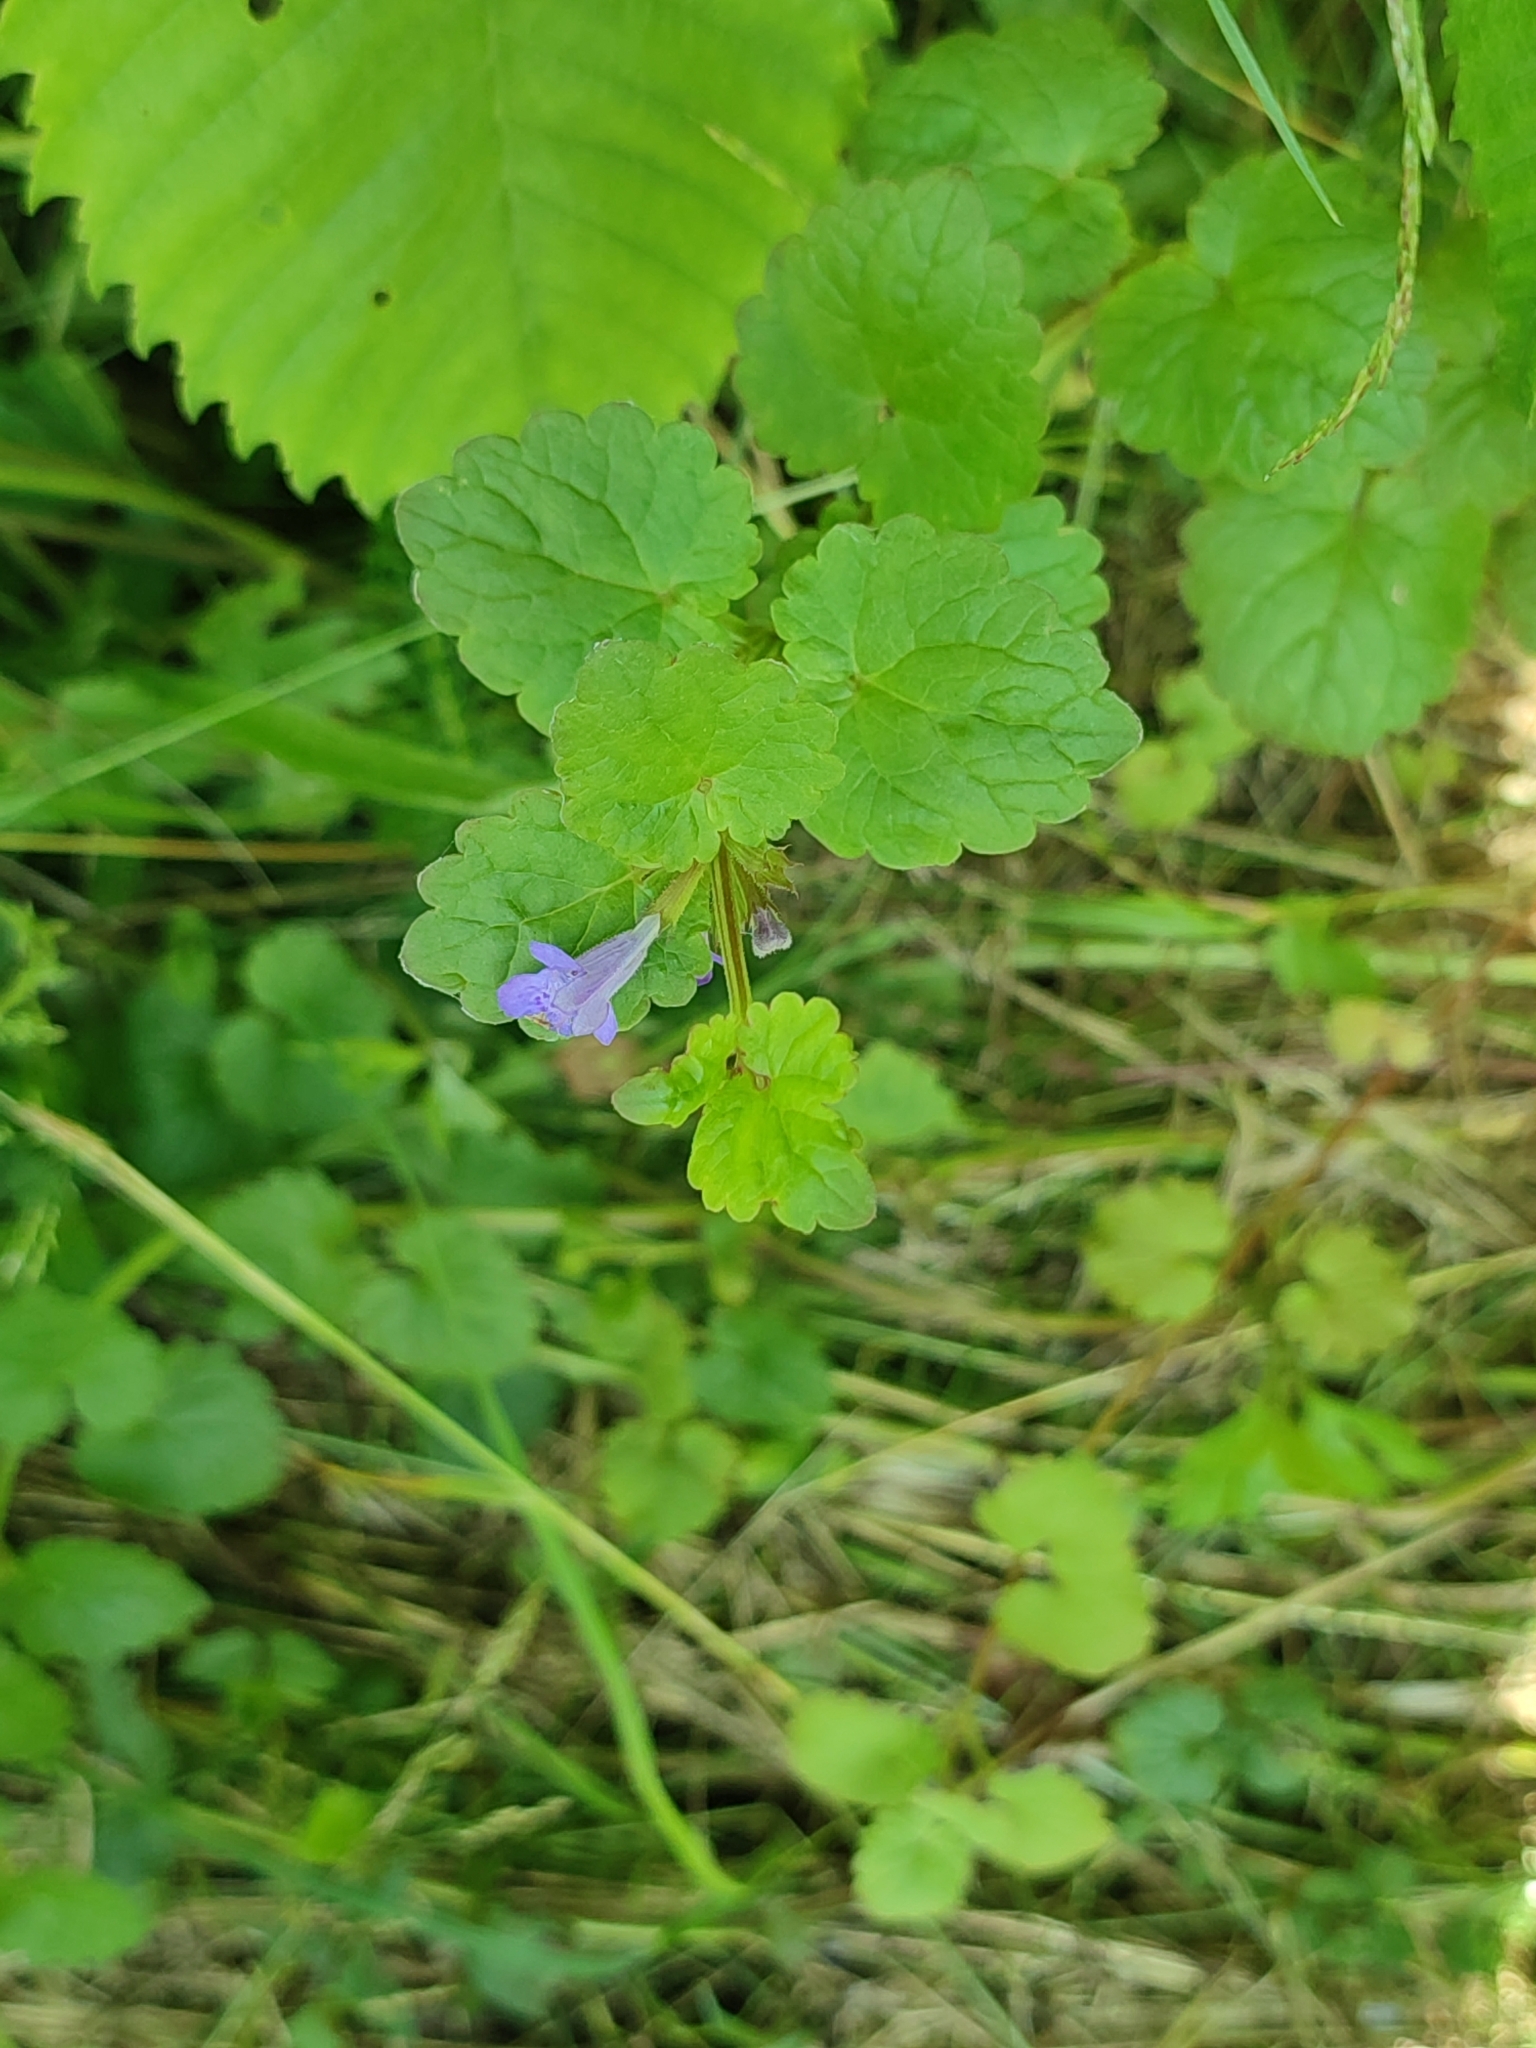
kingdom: Plantae
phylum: Tracheophyta
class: Magnoliopsida
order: Lamiales
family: Lamiaceae
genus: Glechoma
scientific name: Glechoma hederacea
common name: Ground ivy
